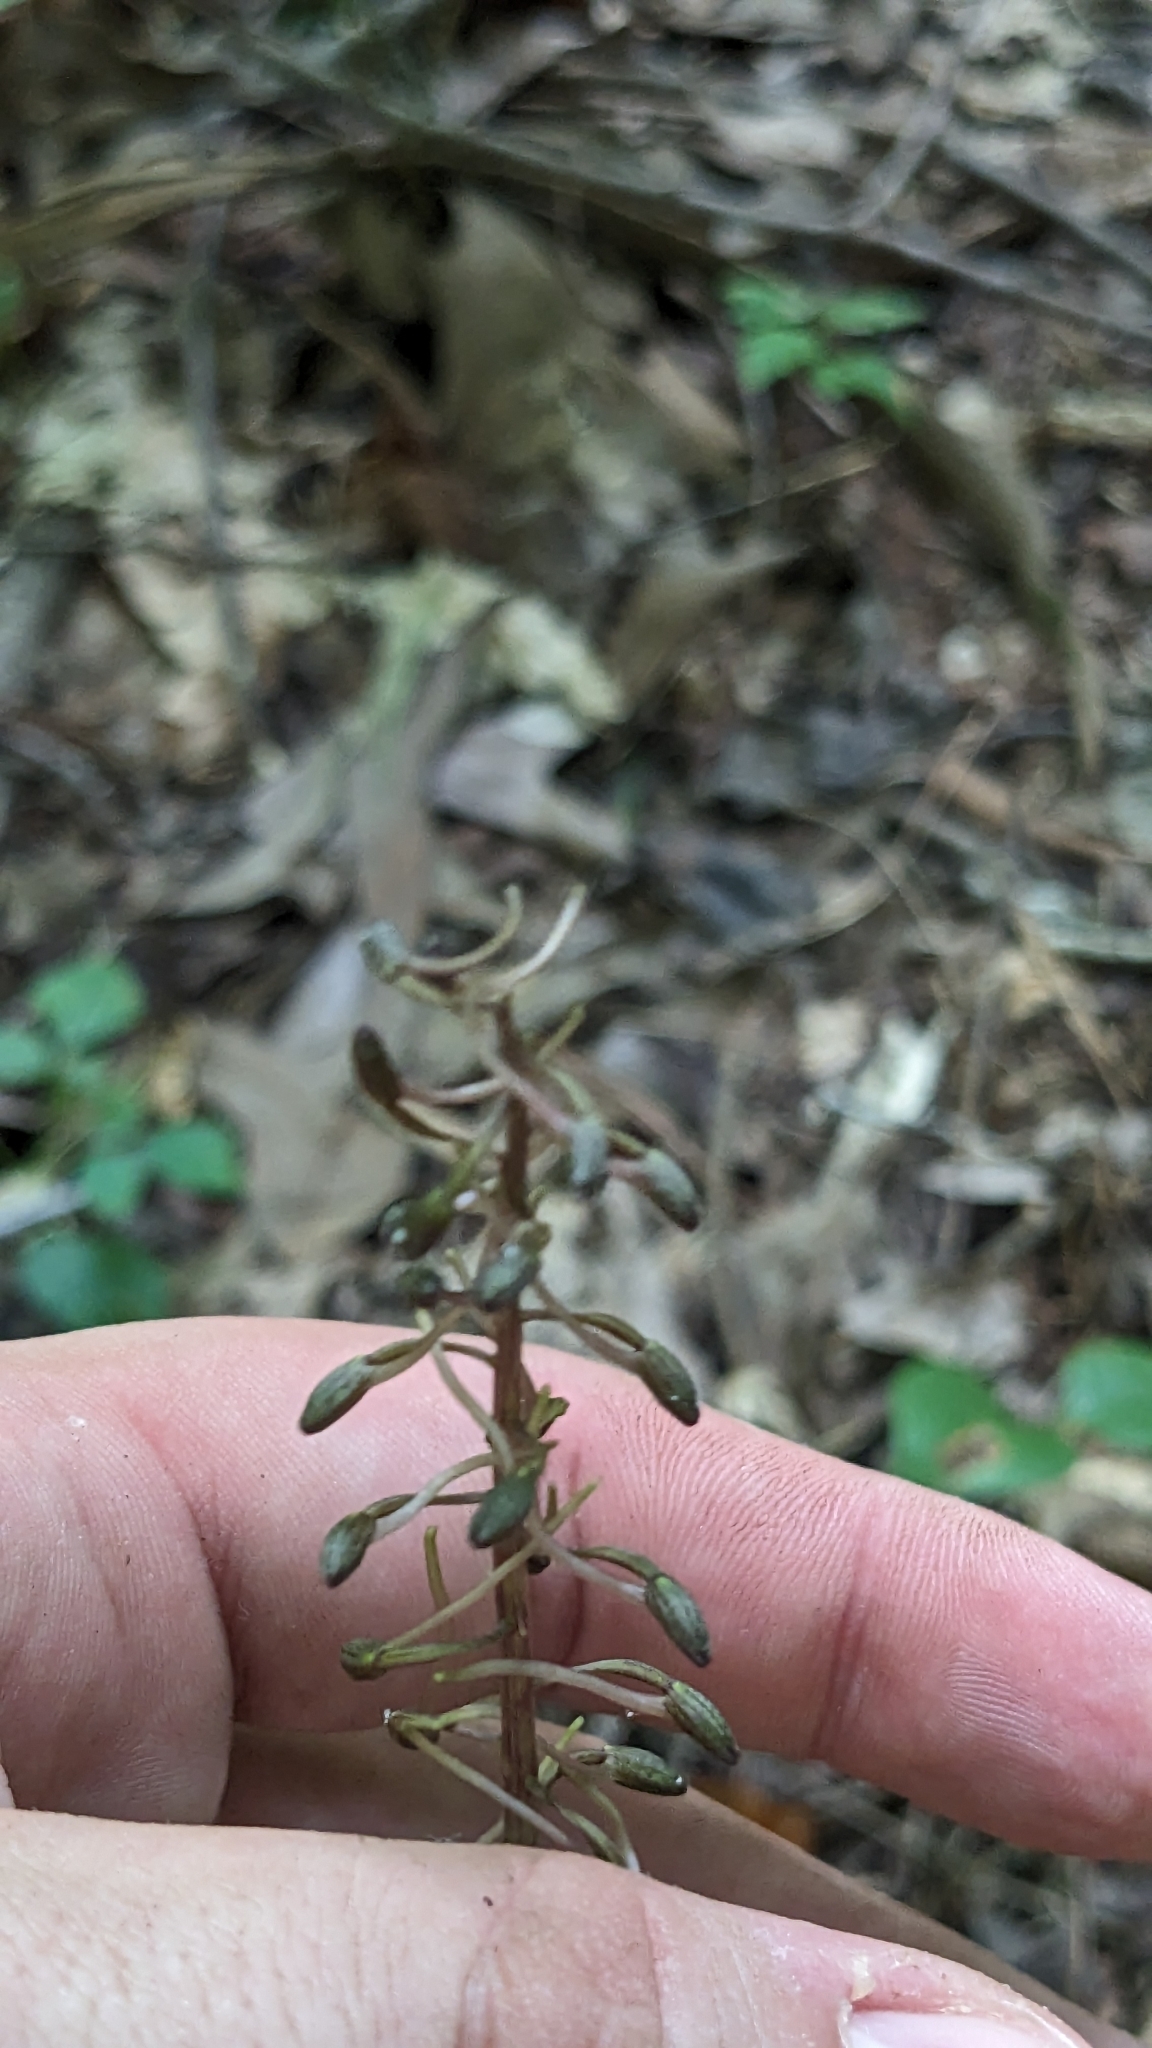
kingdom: Plantae
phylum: Tracheophyta
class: Liliopsida
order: Asparagales
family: Orchidaceae
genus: Tipularia
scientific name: Tipularia discolor
